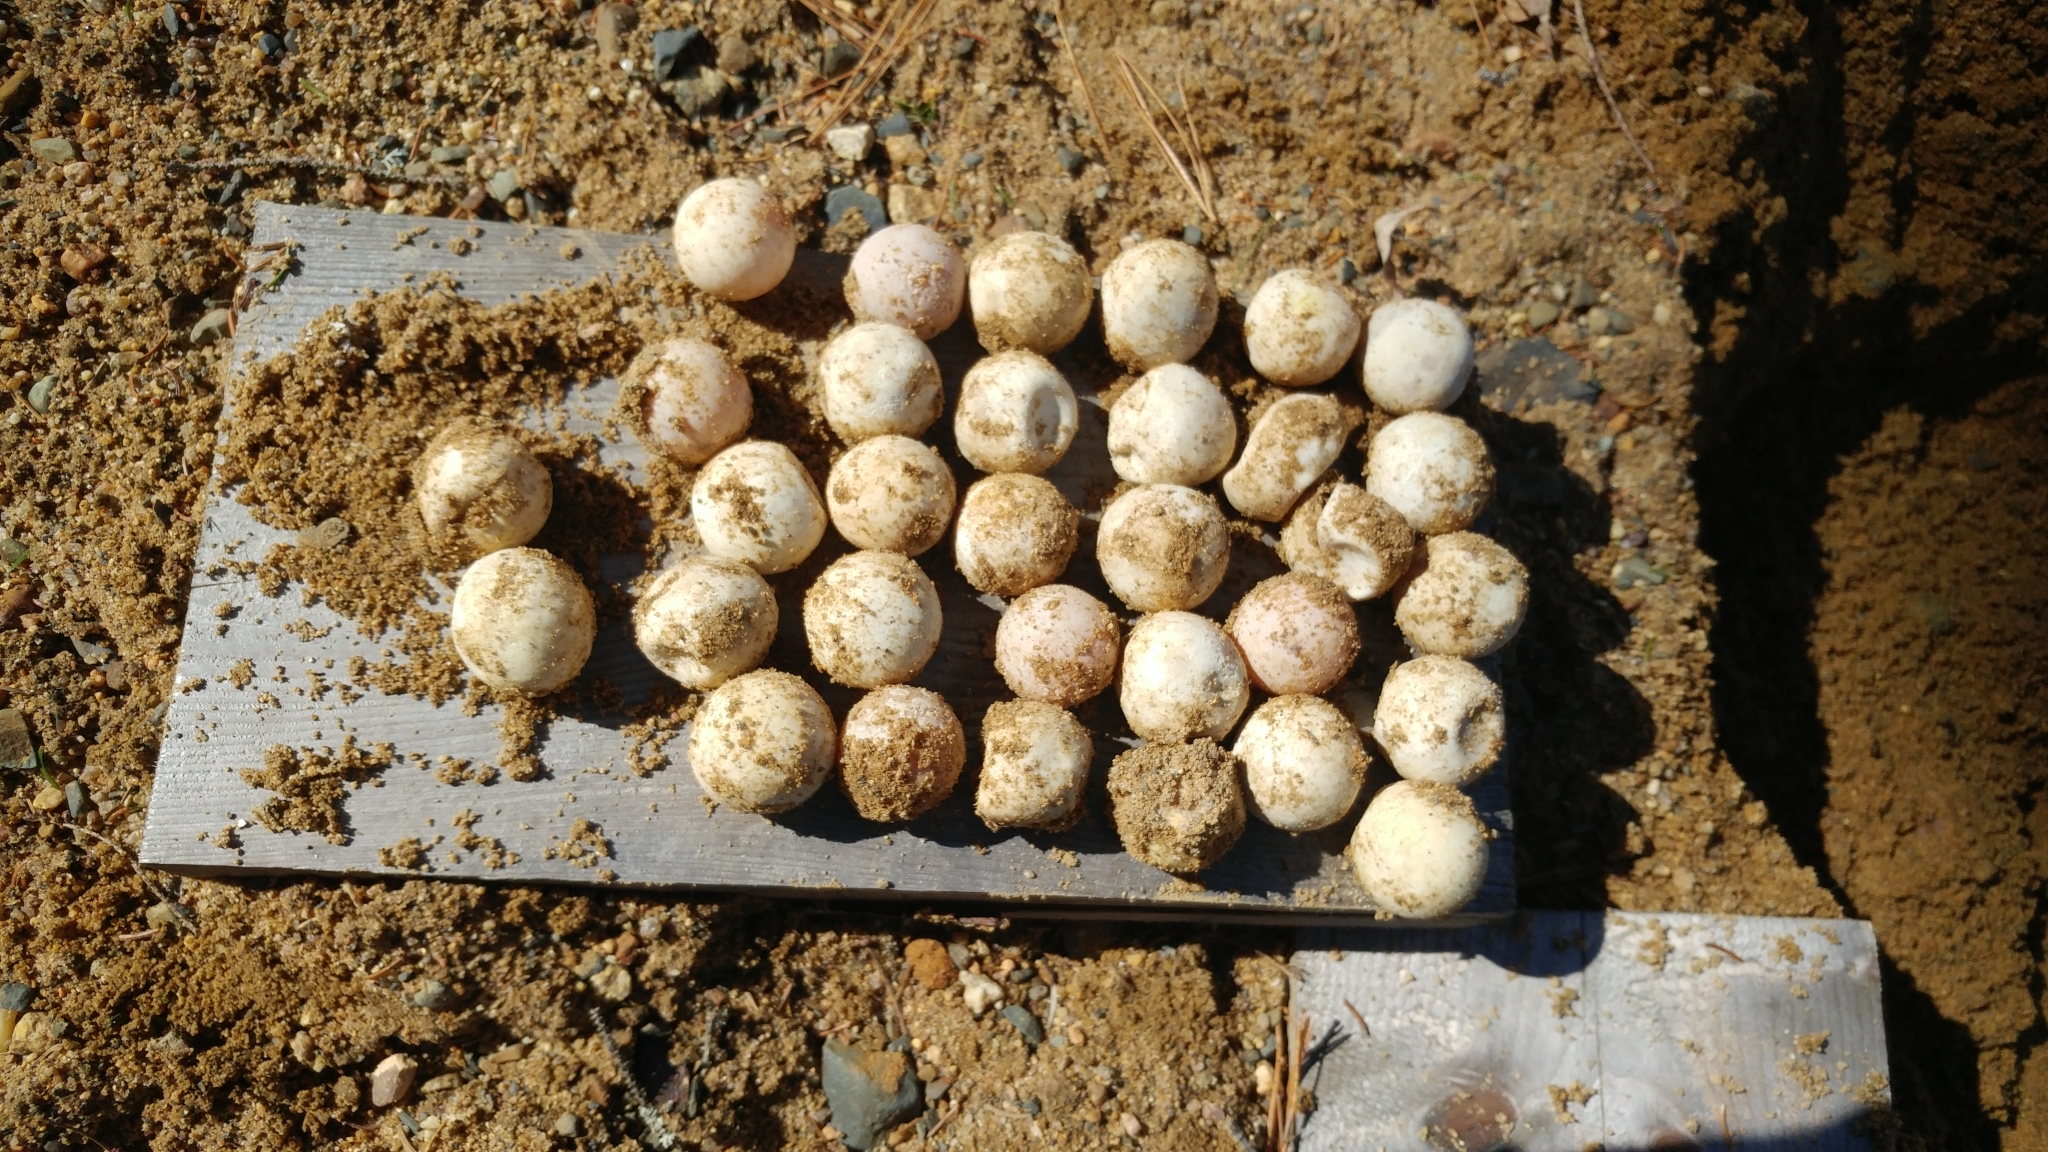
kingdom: Animalia
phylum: Chordata
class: Testudines
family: Chelydridae
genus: Chelydra
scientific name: Chelydra serpentina
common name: Common snapping turtle
